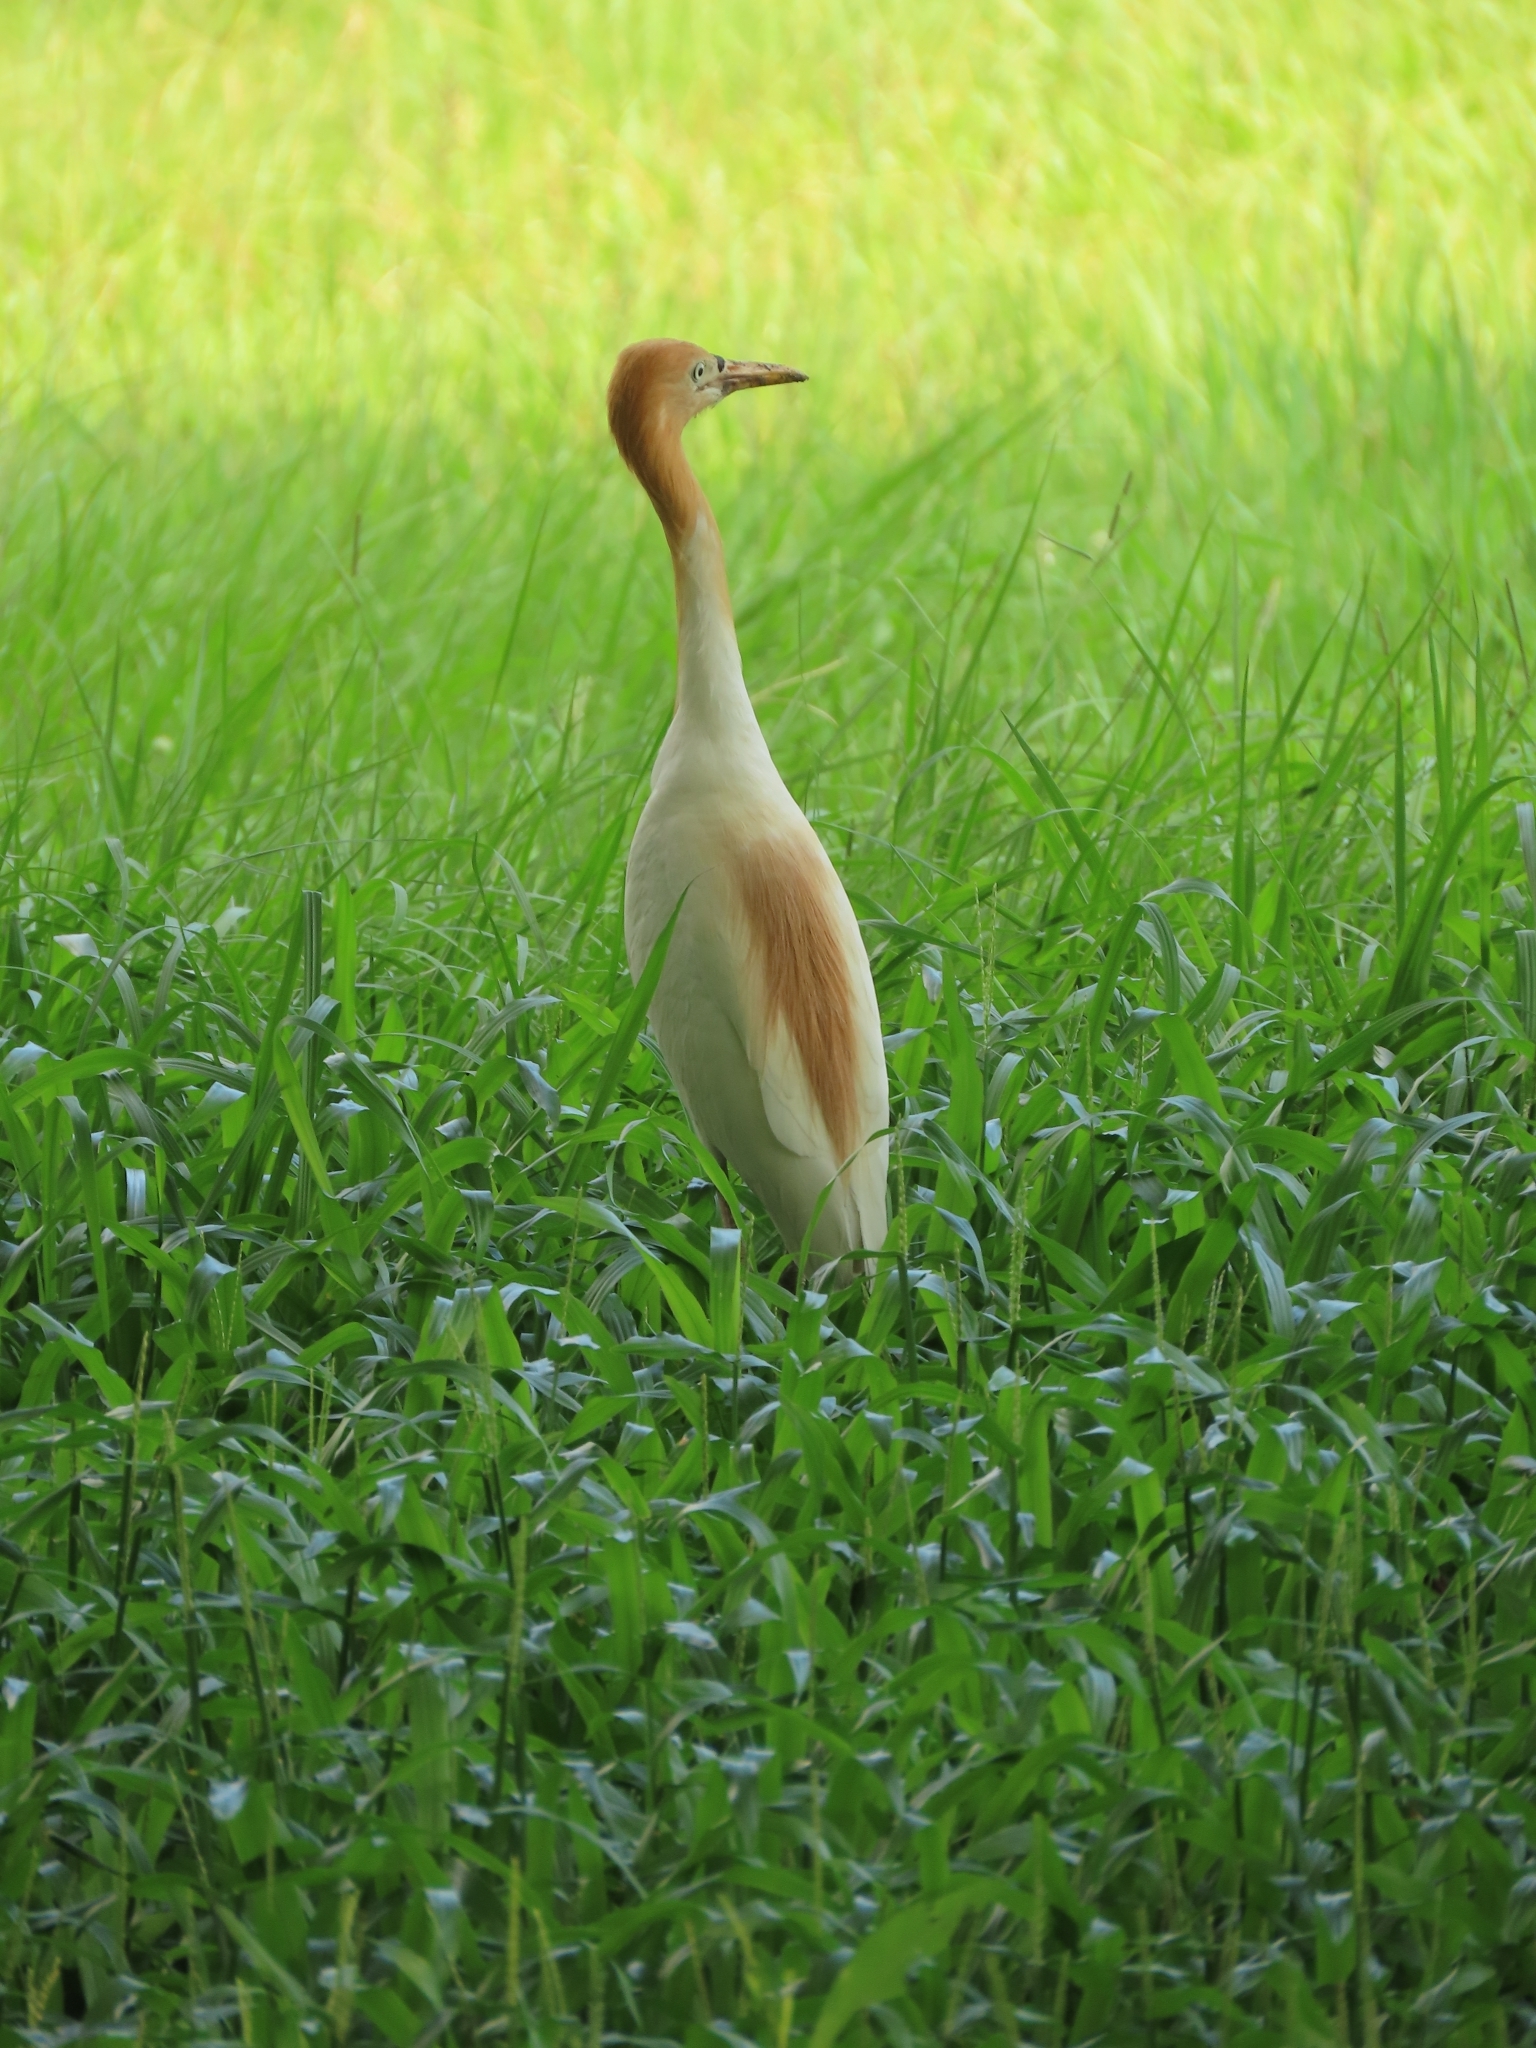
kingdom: Animalia
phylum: Chordata
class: Aves
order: Pelecaniformes
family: Ardeidae
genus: Bubulcus
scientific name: Bubulcus coromandus
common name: Eastern cattle egret
